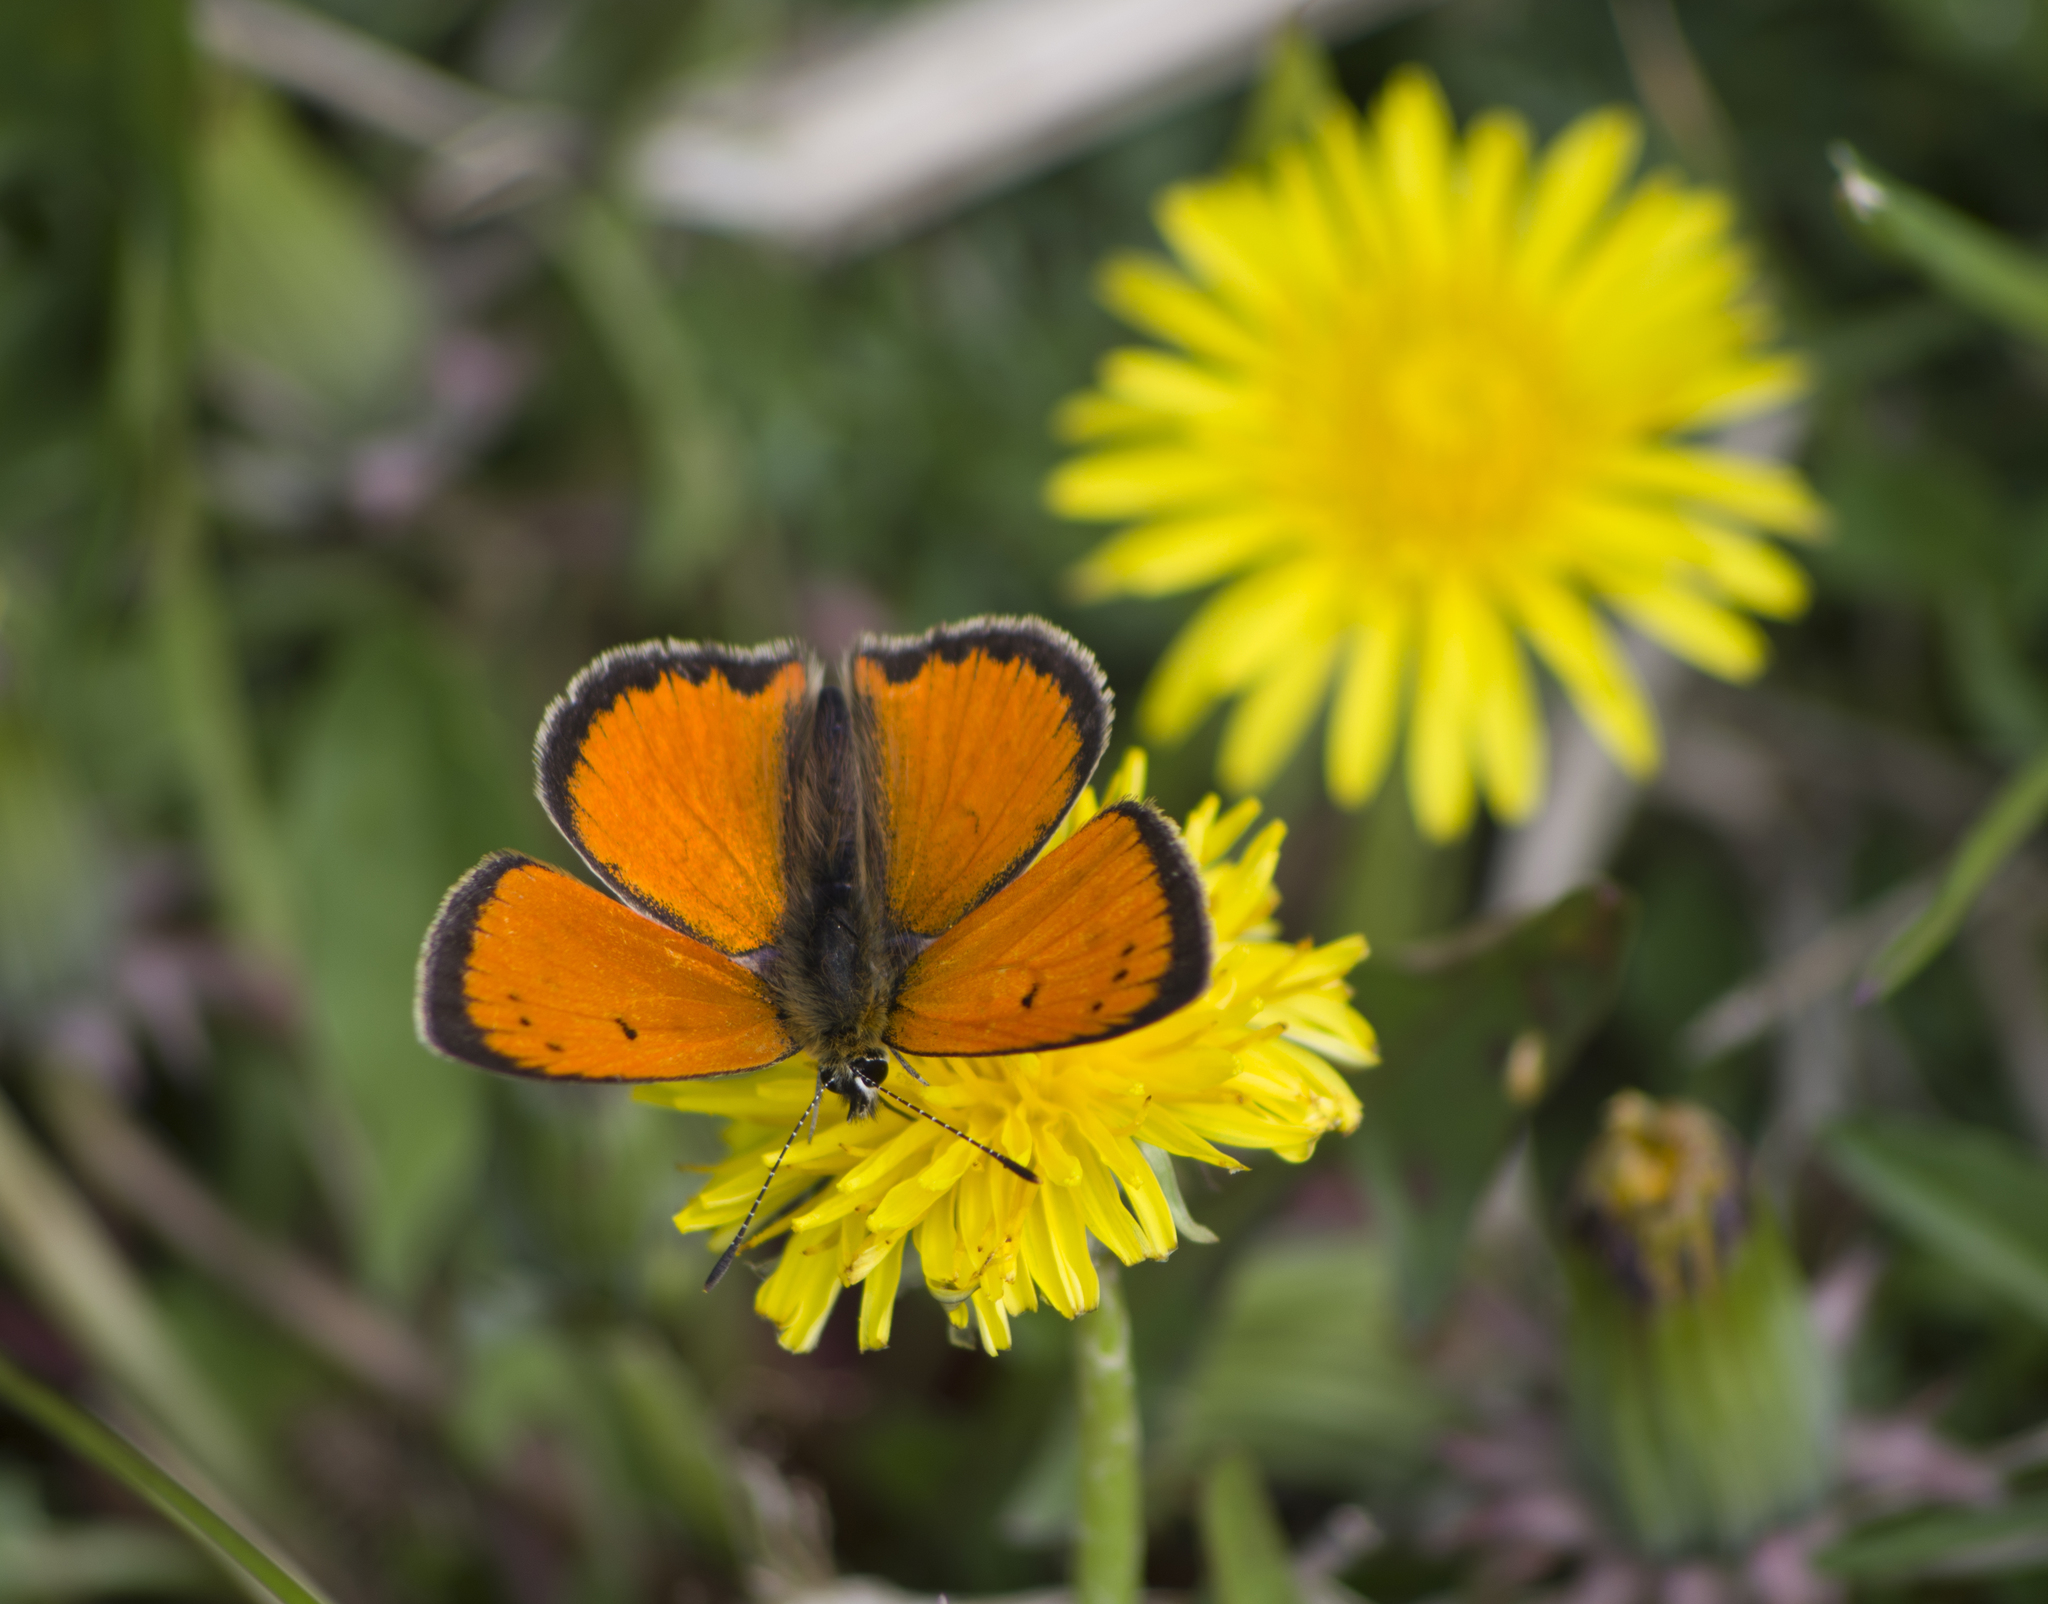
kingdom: Animalia
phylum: Arthropoda
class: Insecta
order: Lepidoptera
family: Lycaenidae
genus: Polyommatus
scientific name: Polyommatus ottomanus
